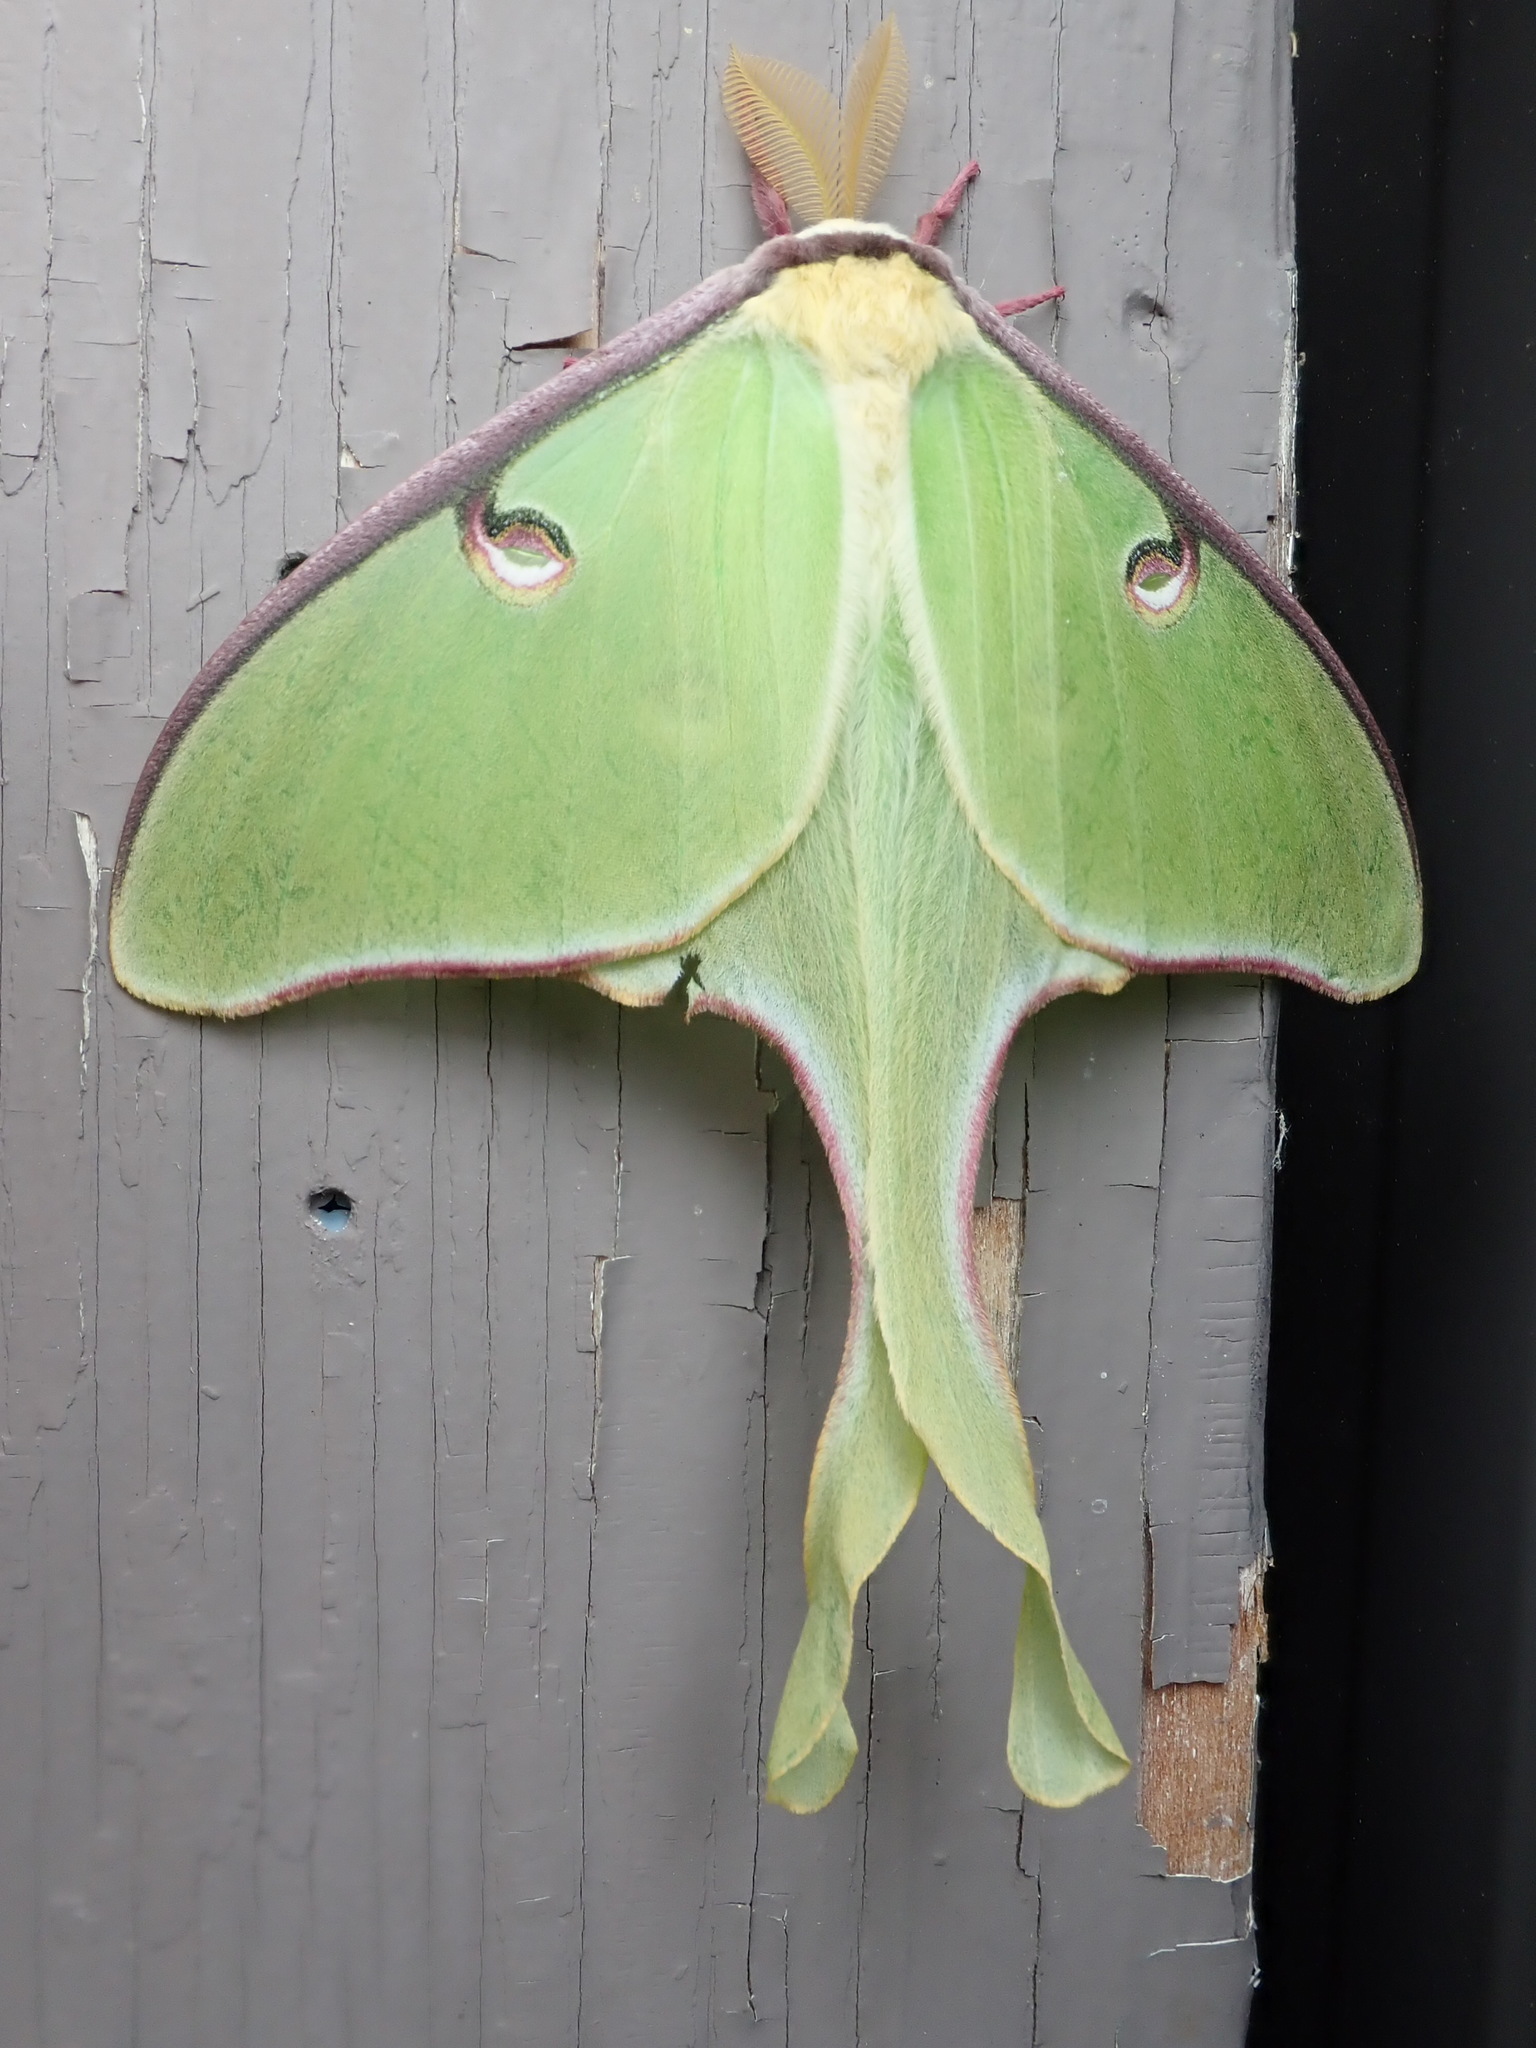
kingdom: Animalia
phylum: Arthropoda
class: Insecta
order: Lepidoptera
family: Saturniidae
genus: Actias
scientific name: Actias luna
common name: Luna moth
